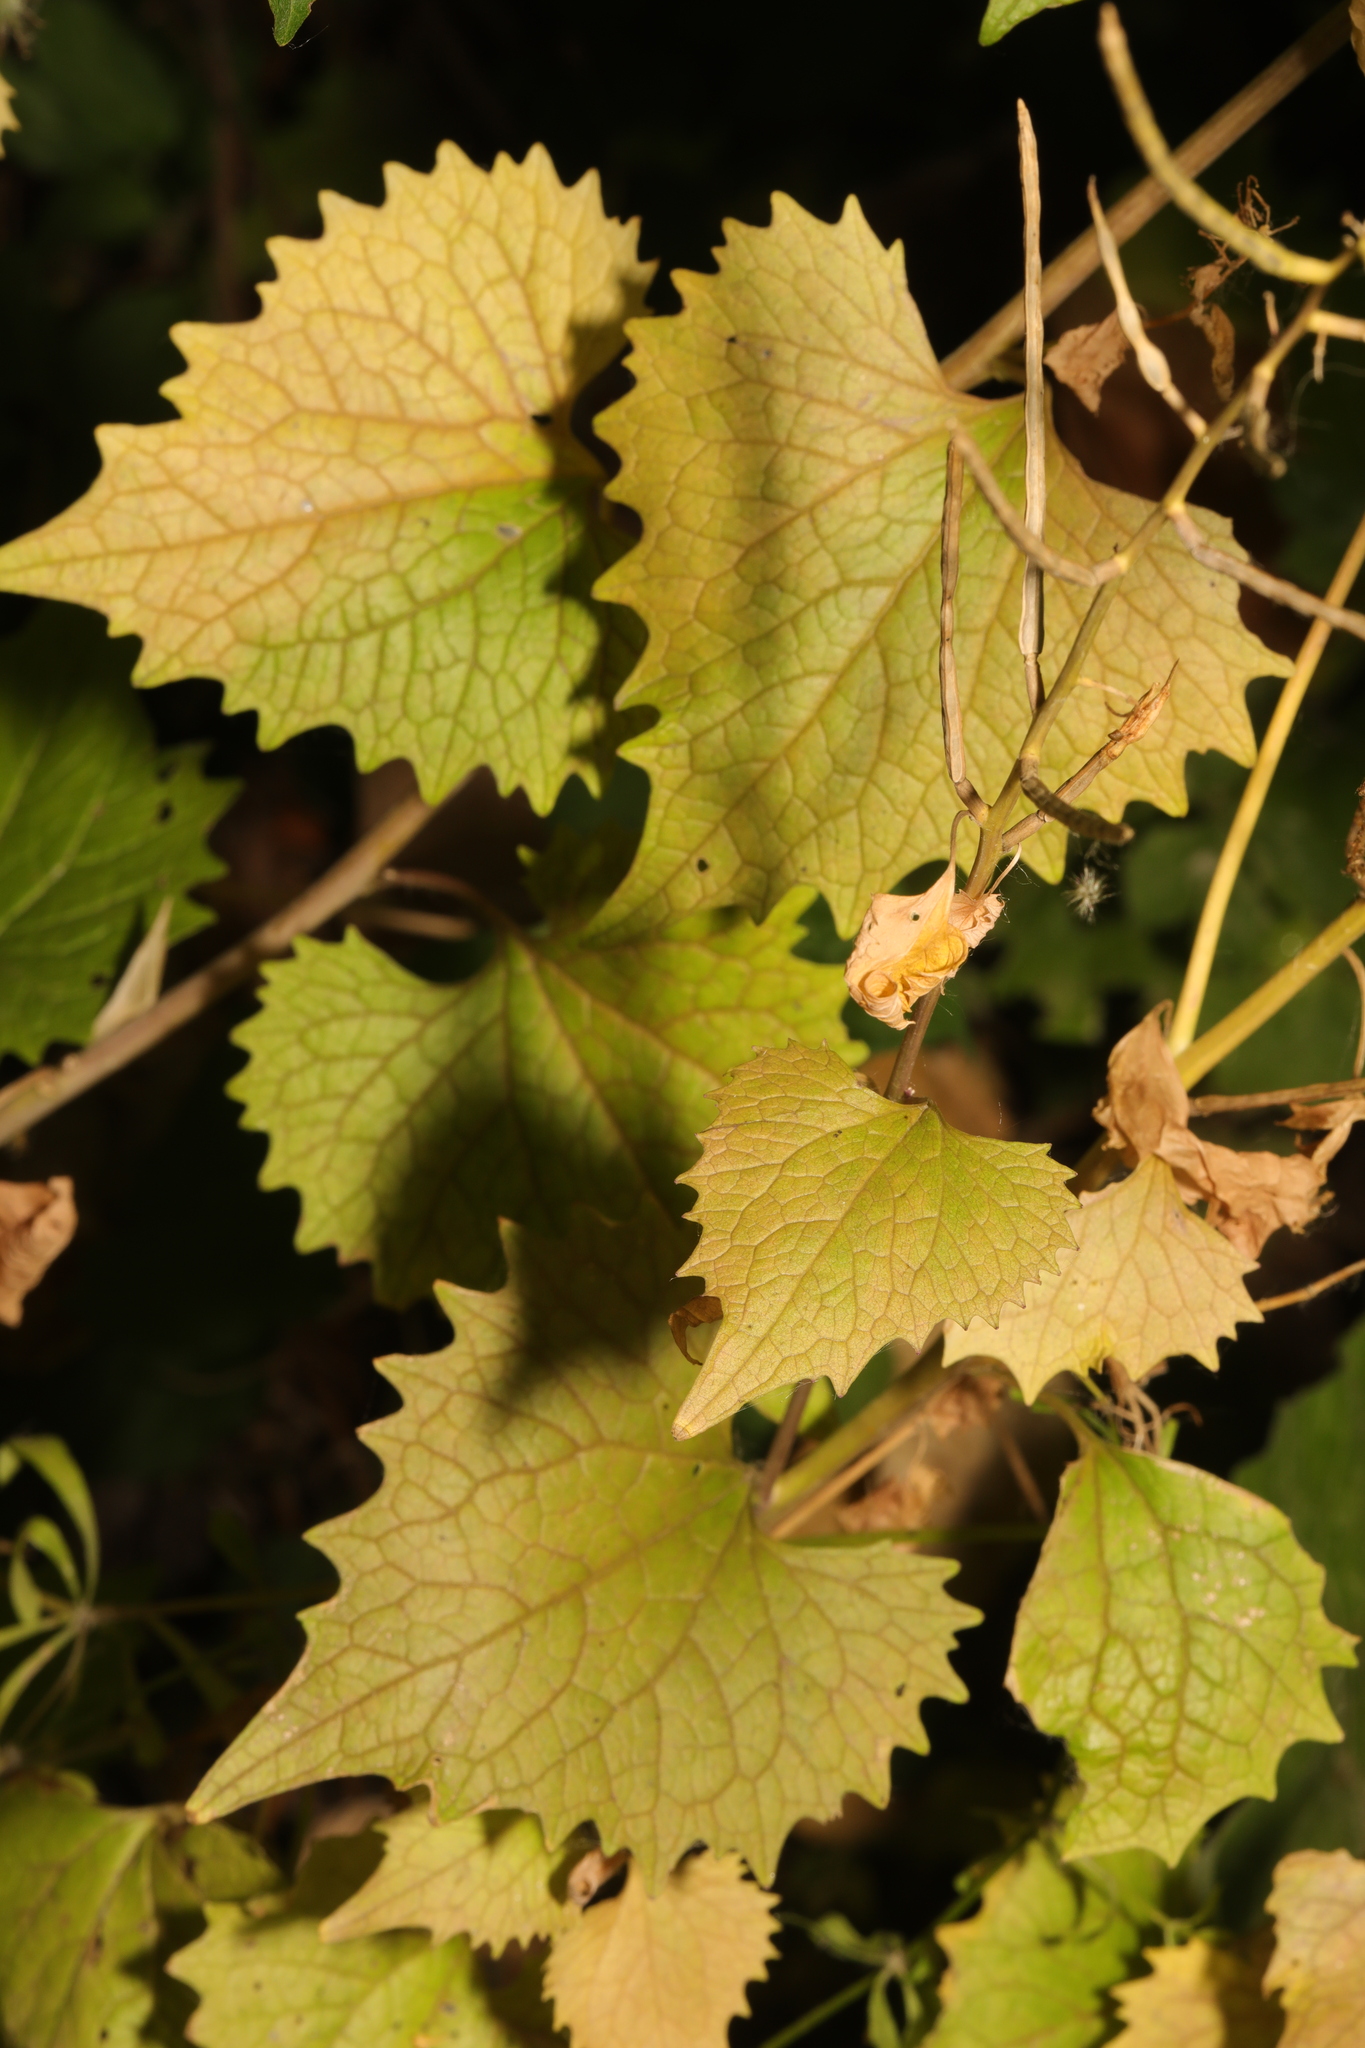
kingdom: Plantae
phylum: Tracheophyta
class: Magnoliopsida
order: Brassicales
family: Brassicaceae
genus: Alliaria
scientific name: Alliaria petiolata
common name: Garlic mustard
